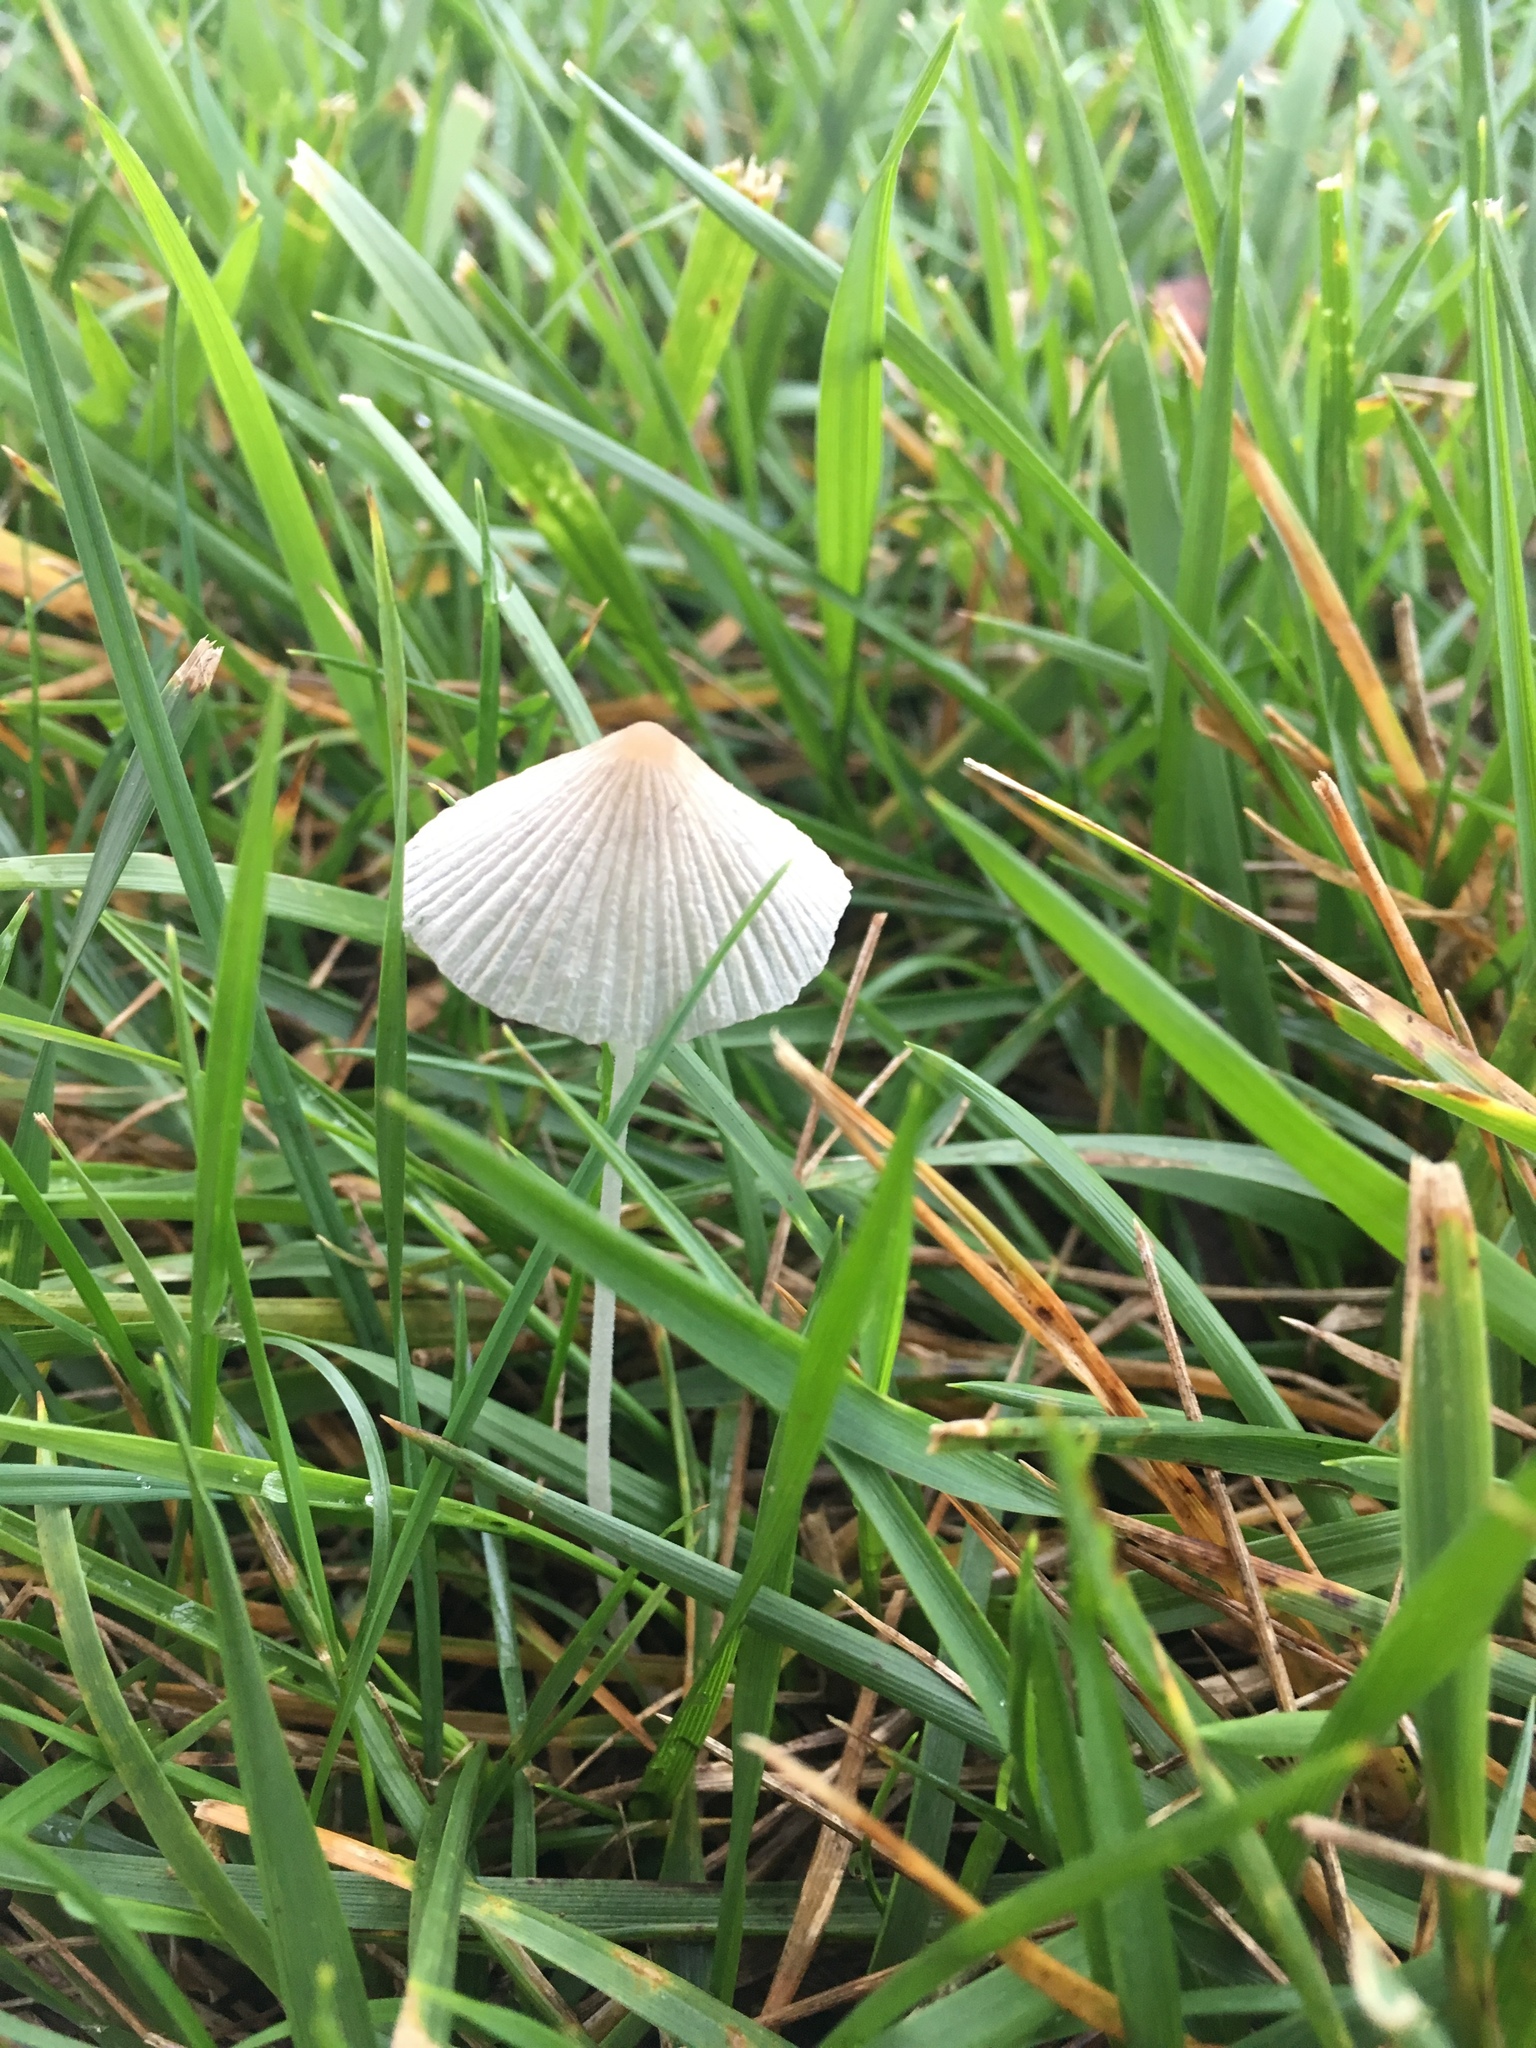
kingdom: Fungi
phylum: Basidiomycota
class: Agaricomycetes
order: Agaricales
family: Psathyrellaceae
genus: Parasola
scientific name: Parasola plicatilis
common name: Pleated inkcap
